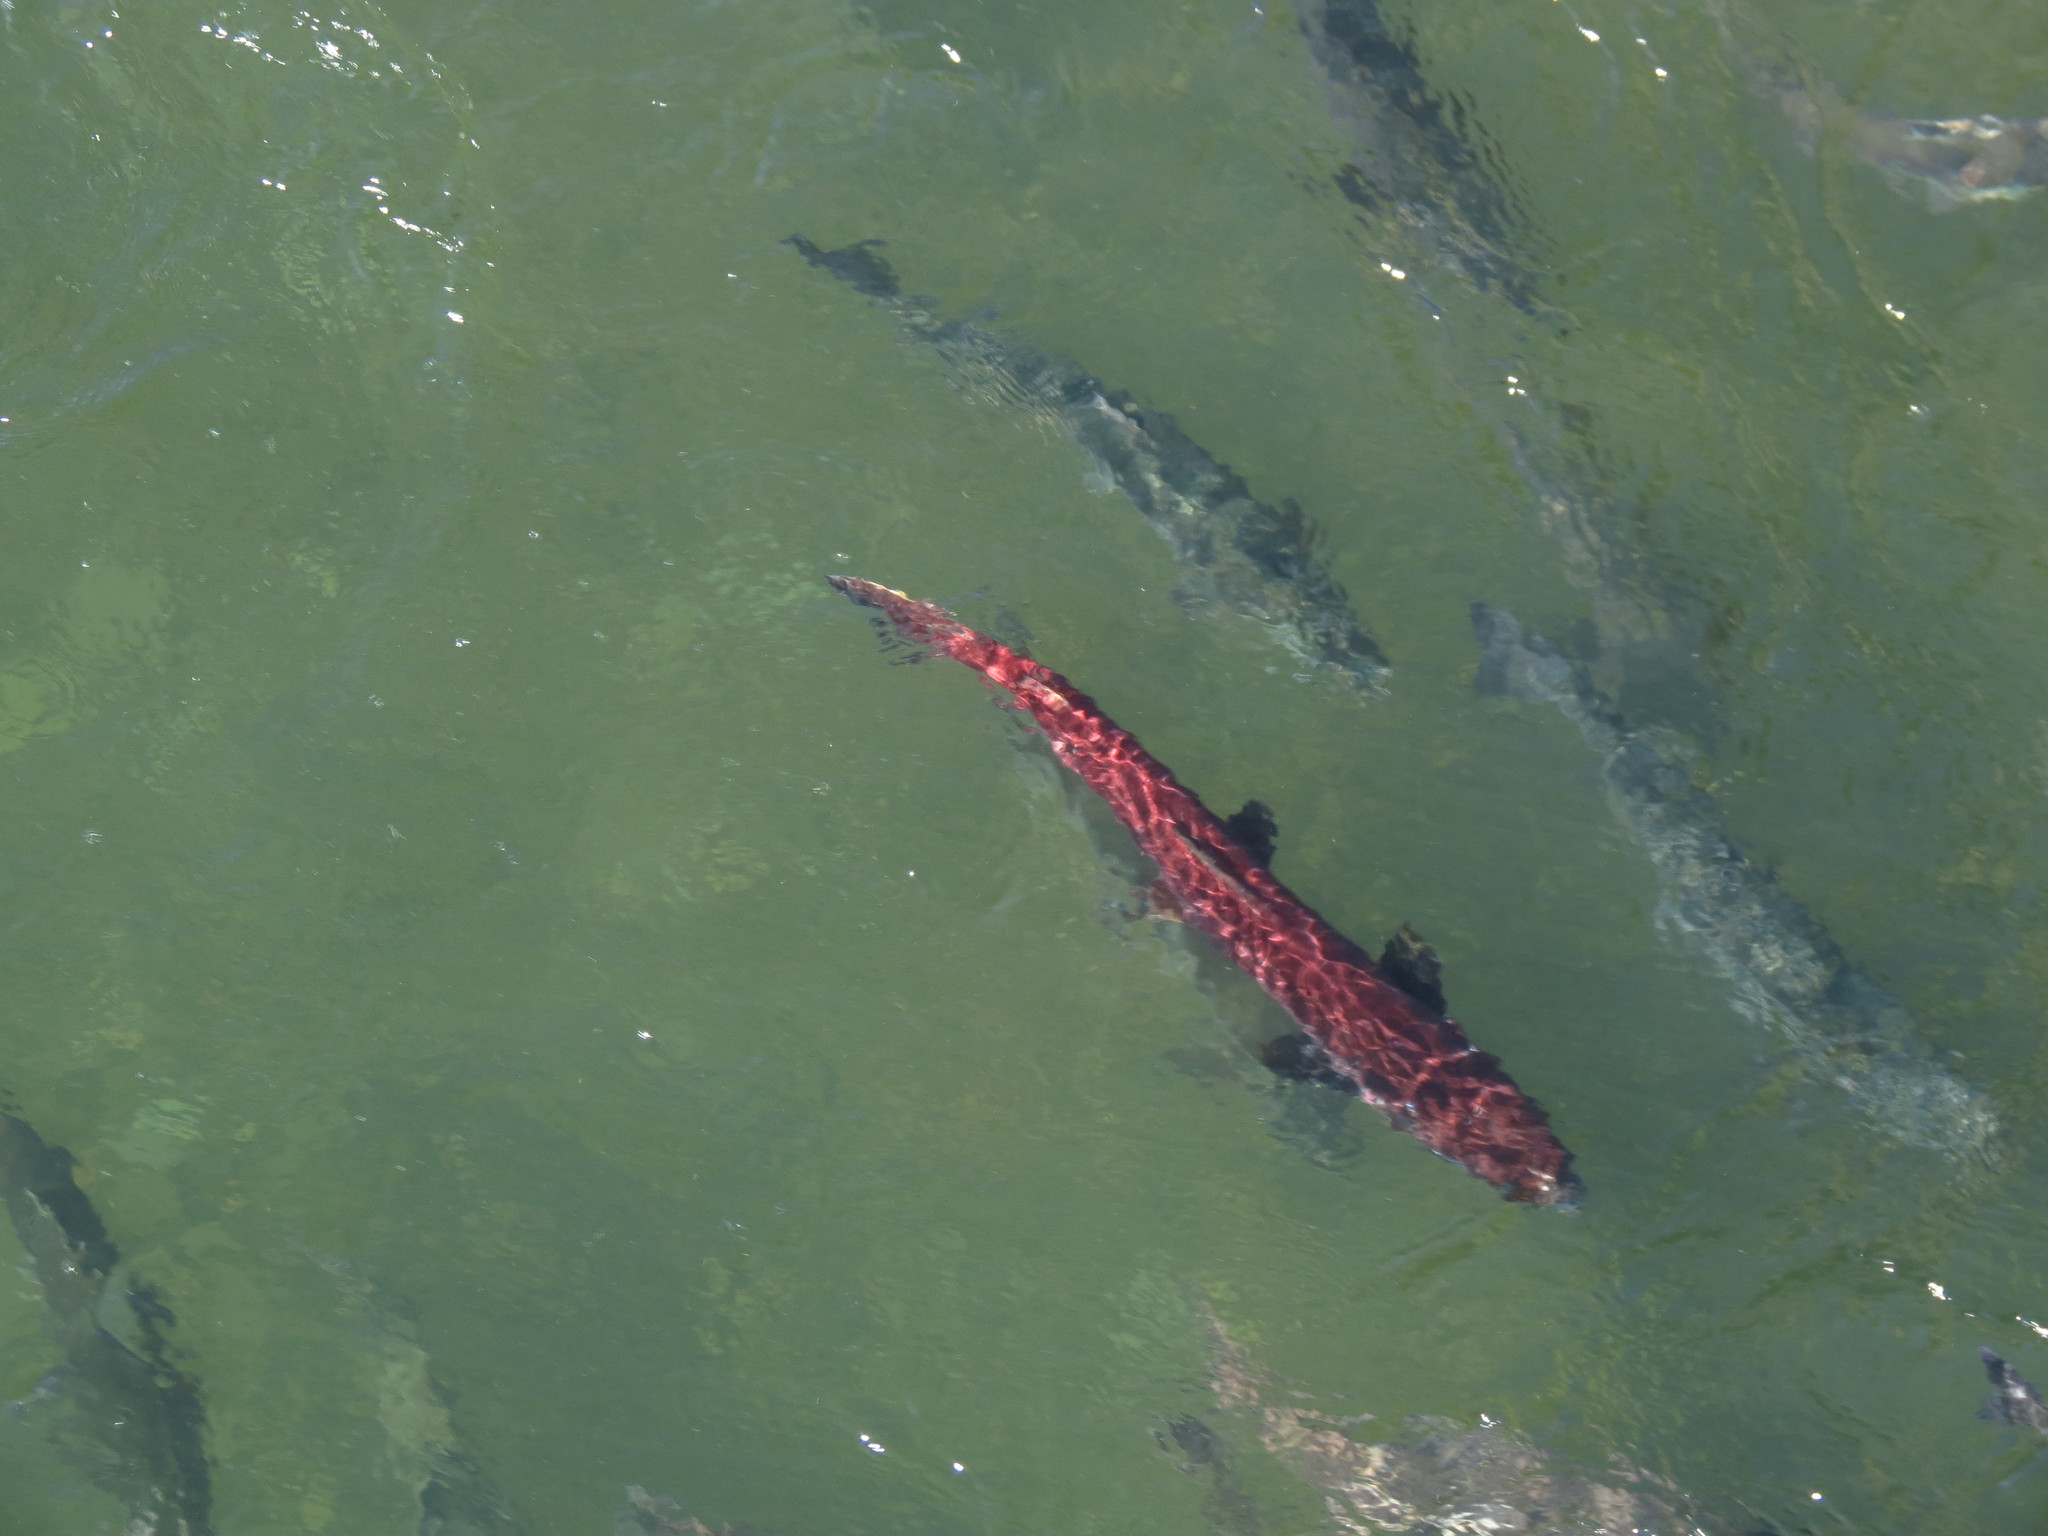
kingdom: Animalia
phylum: Chordata
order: Salmoniformes
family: Salmonidae
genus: Oncorhynchus
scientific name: Oncorhynchus tshawytscha
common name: Chinook salmon
